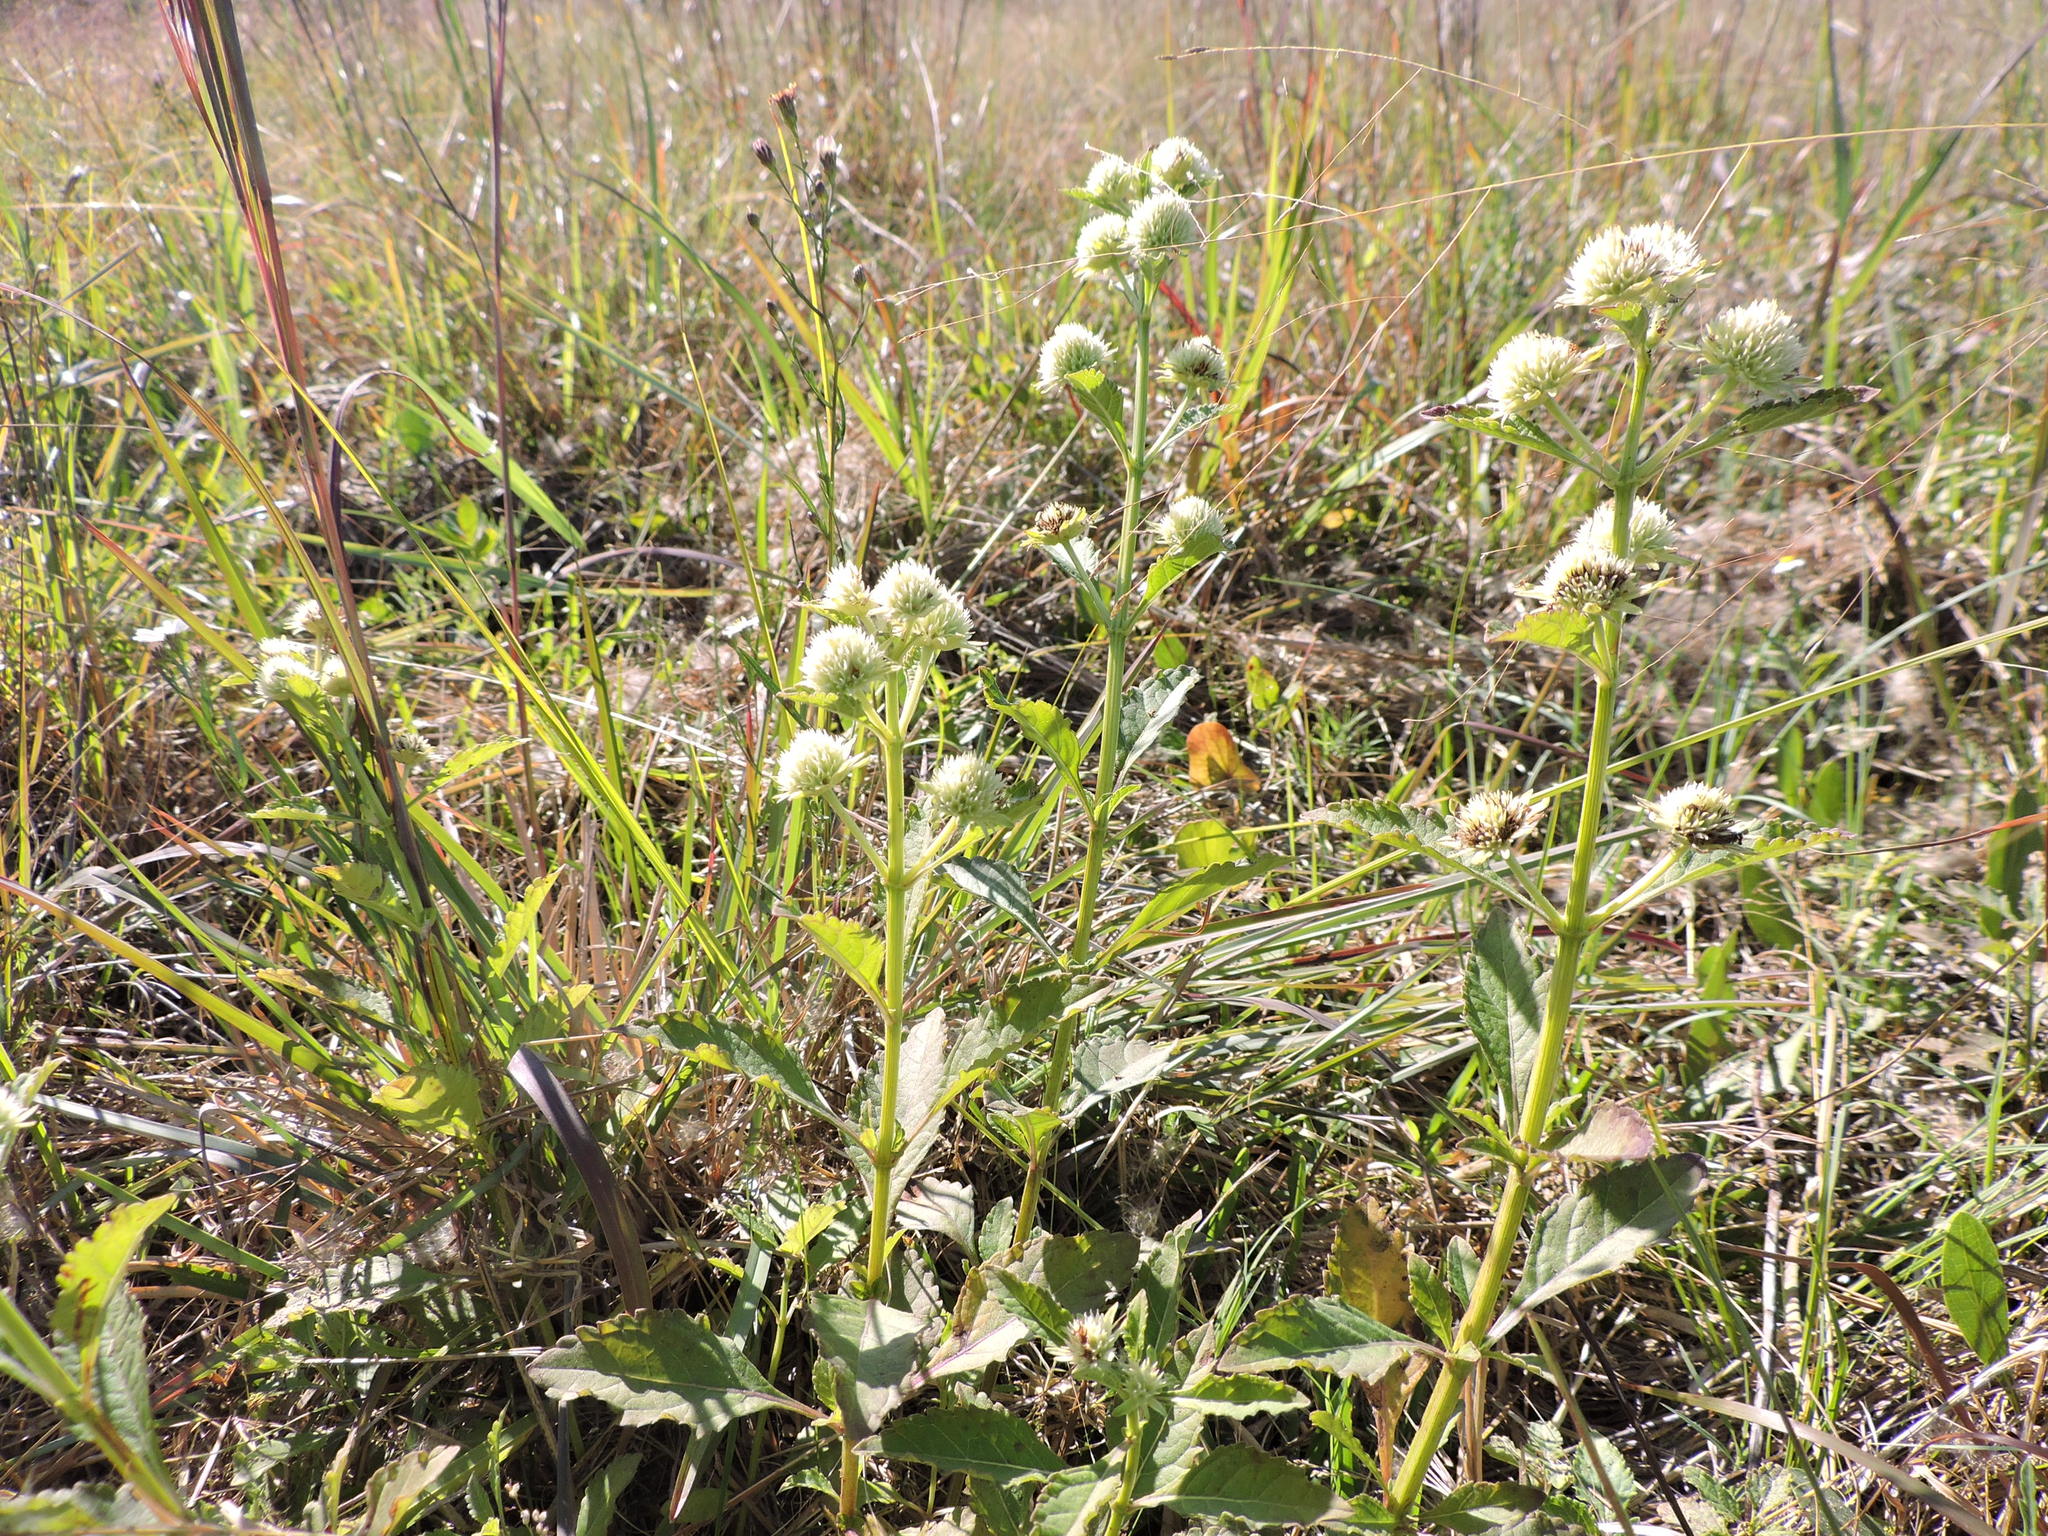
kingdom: Plantae
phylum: Tracheophyta
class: Magnoliopsida
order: Lamiales
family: Lamiaceae
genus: Hyptis
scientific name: Hyptis alata
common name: Cluster bush-mint
